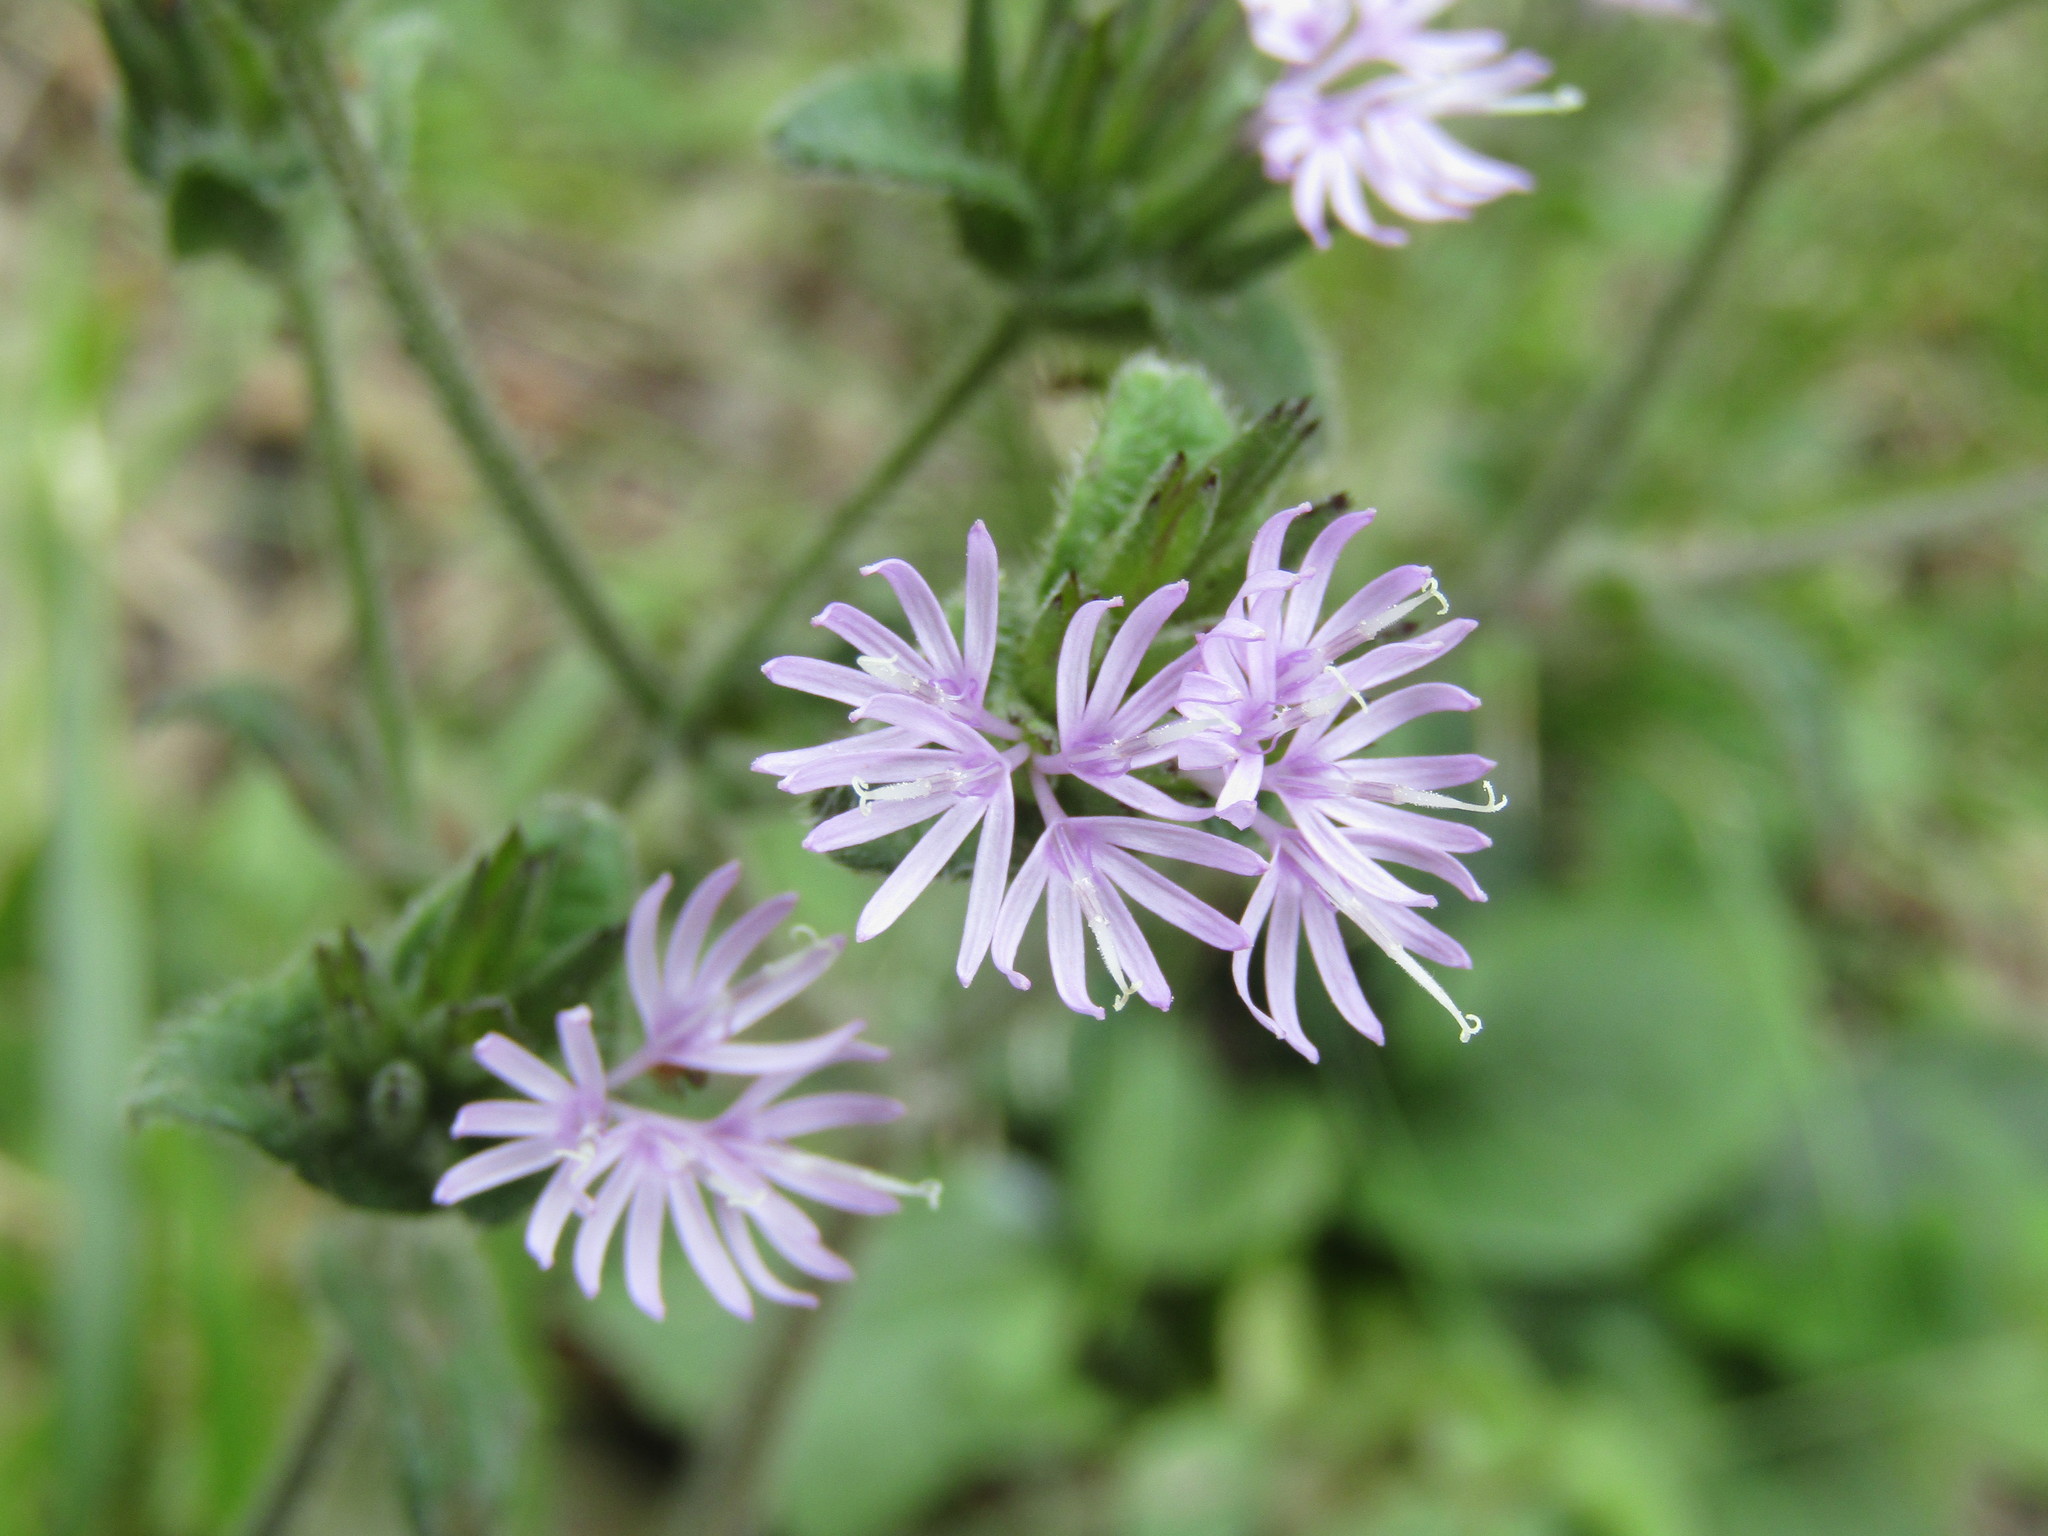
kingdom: Plantae
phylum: Tracheophyta
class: Magnoliopsida
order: Asterales
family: Asteraceae
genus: Elephantopus
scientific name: Elephantopus tomentosus
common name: Tobacco-weed
